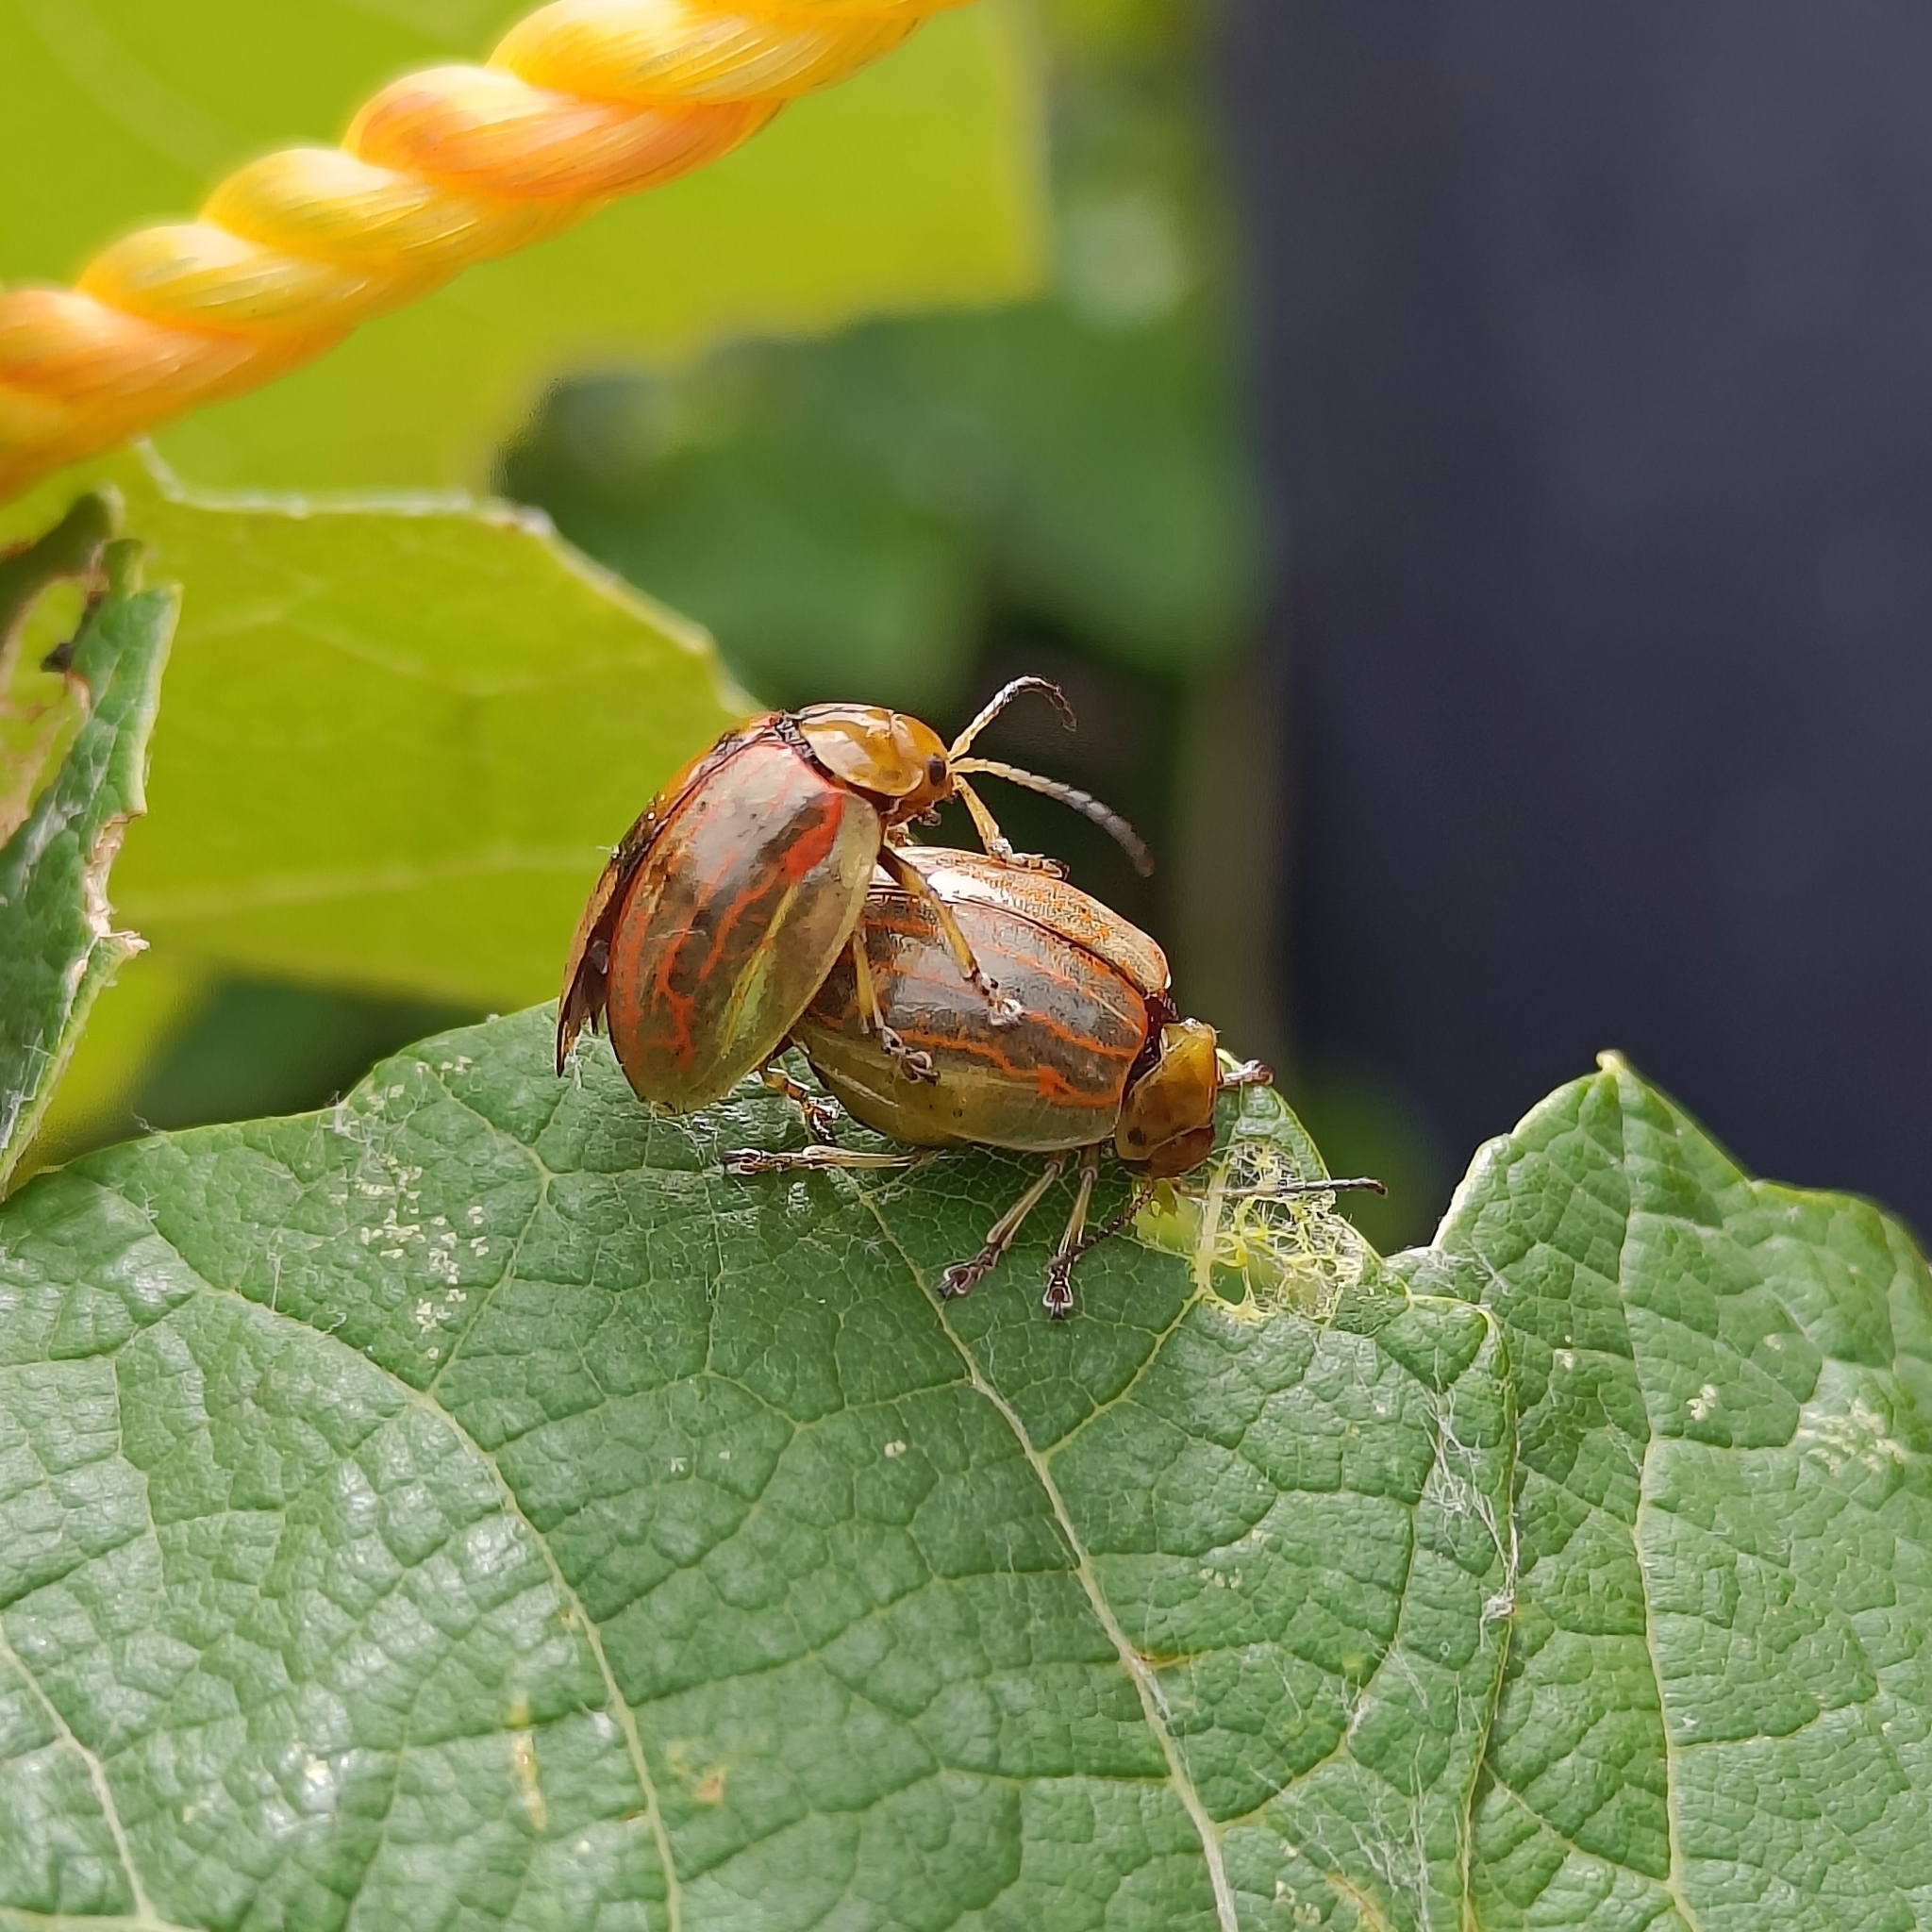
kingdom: Animalia
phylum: Arthropoda
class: Insecta
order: Coleoptera
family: Chrysomelidae
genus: Oides
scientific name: Oides scutellata
